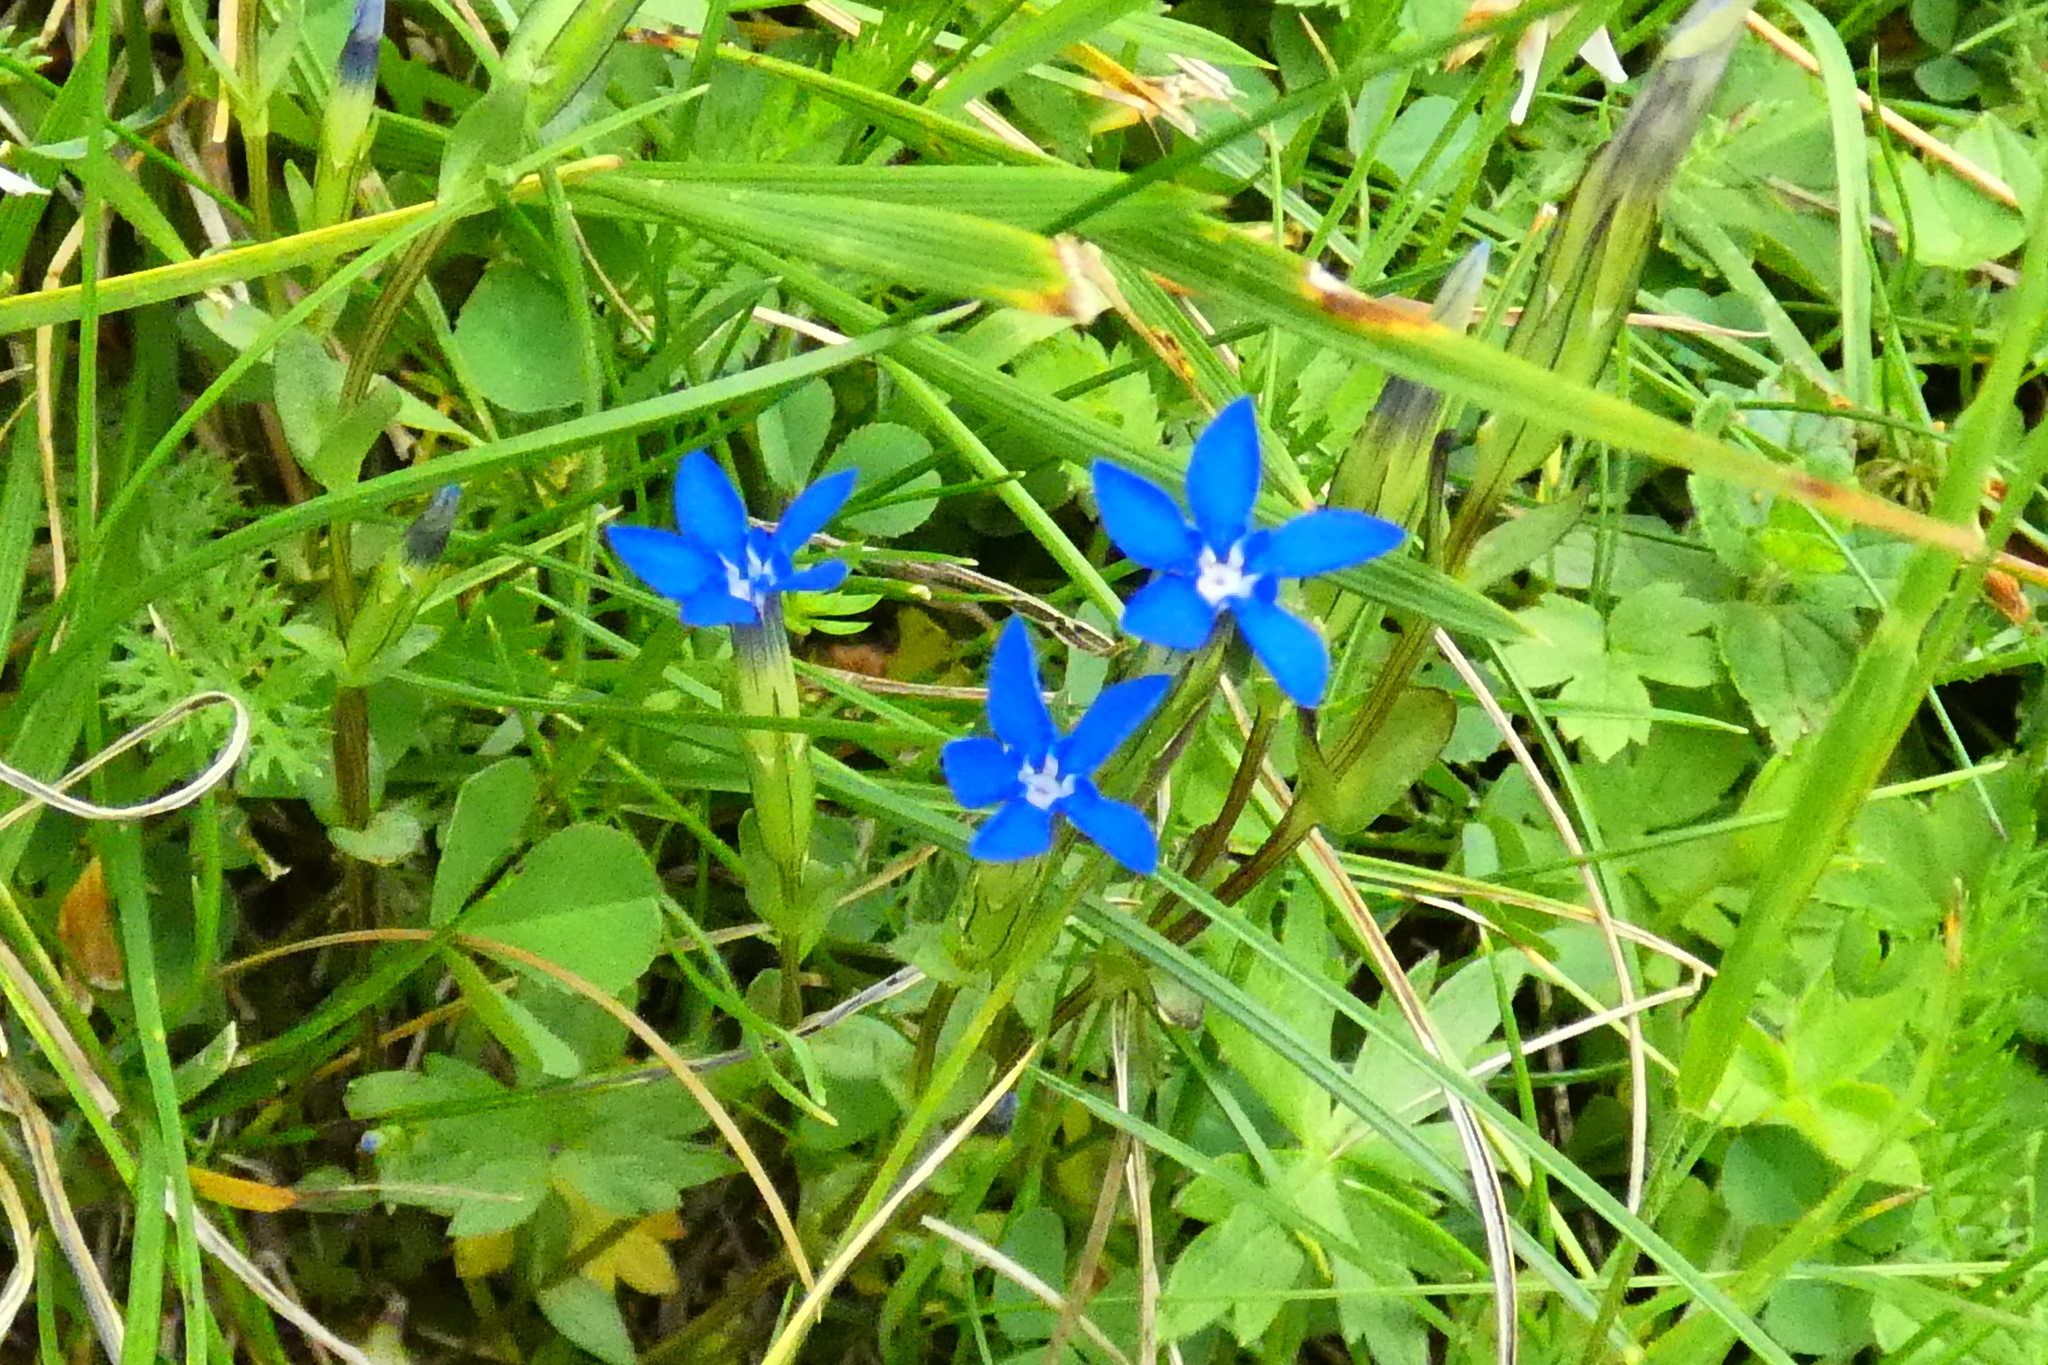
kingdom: Plantae
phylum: Tracheophyta
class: Magnoliopsida
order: Gentianales
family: Gentianaceae
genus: Gentiana
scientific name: Gentiana nivalis
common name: Alpine gentian
